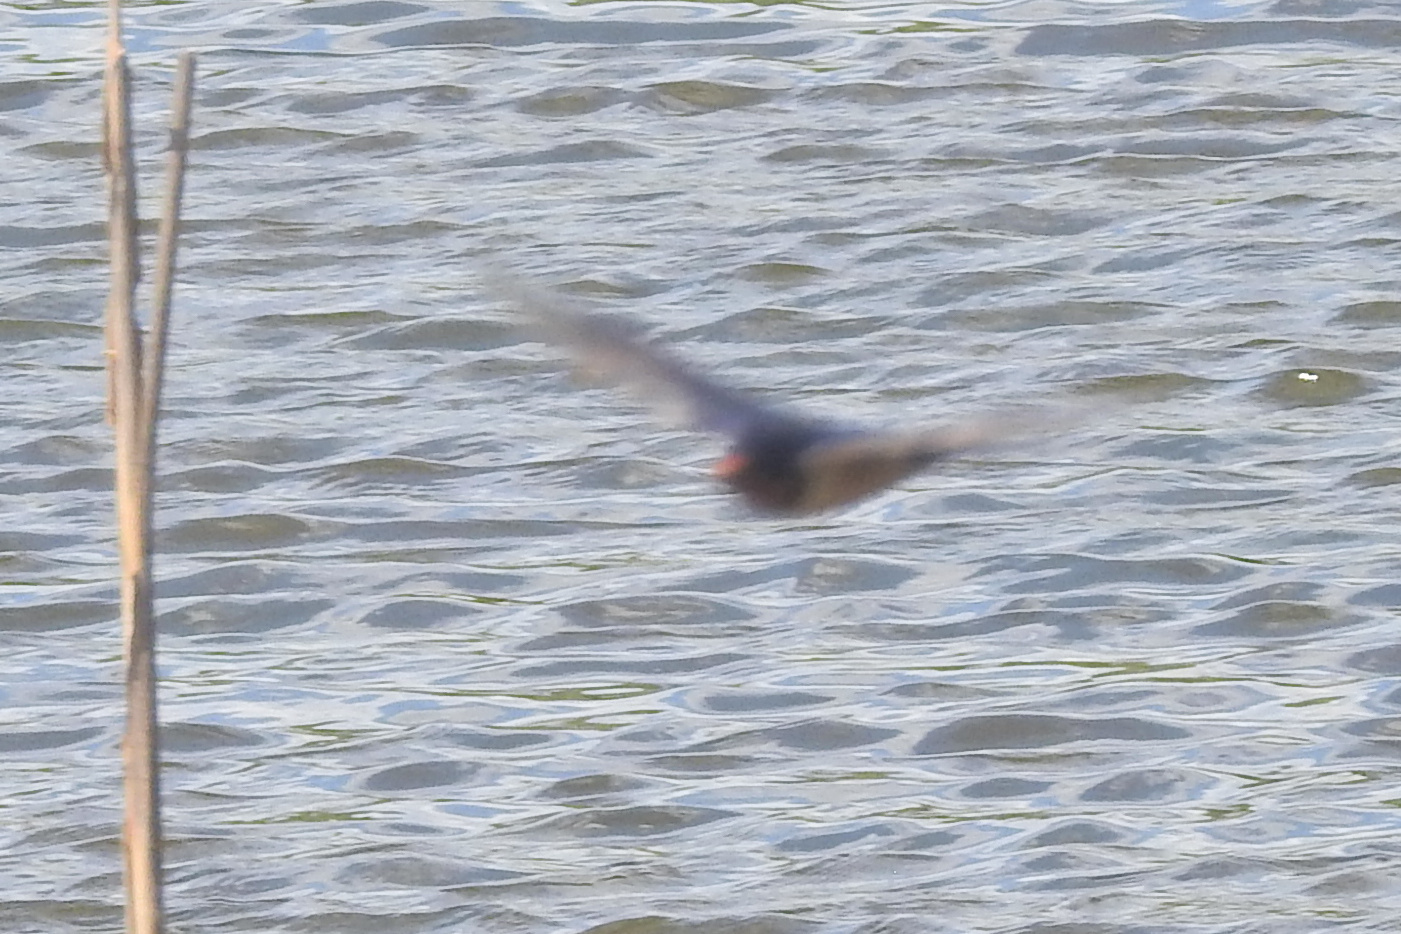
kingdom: Animalia
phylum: Chordata
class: Aves
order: Passeriformes
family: Hirundinidae
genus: Hirundo
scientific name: Hirundo rustica
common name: Barn swallow
